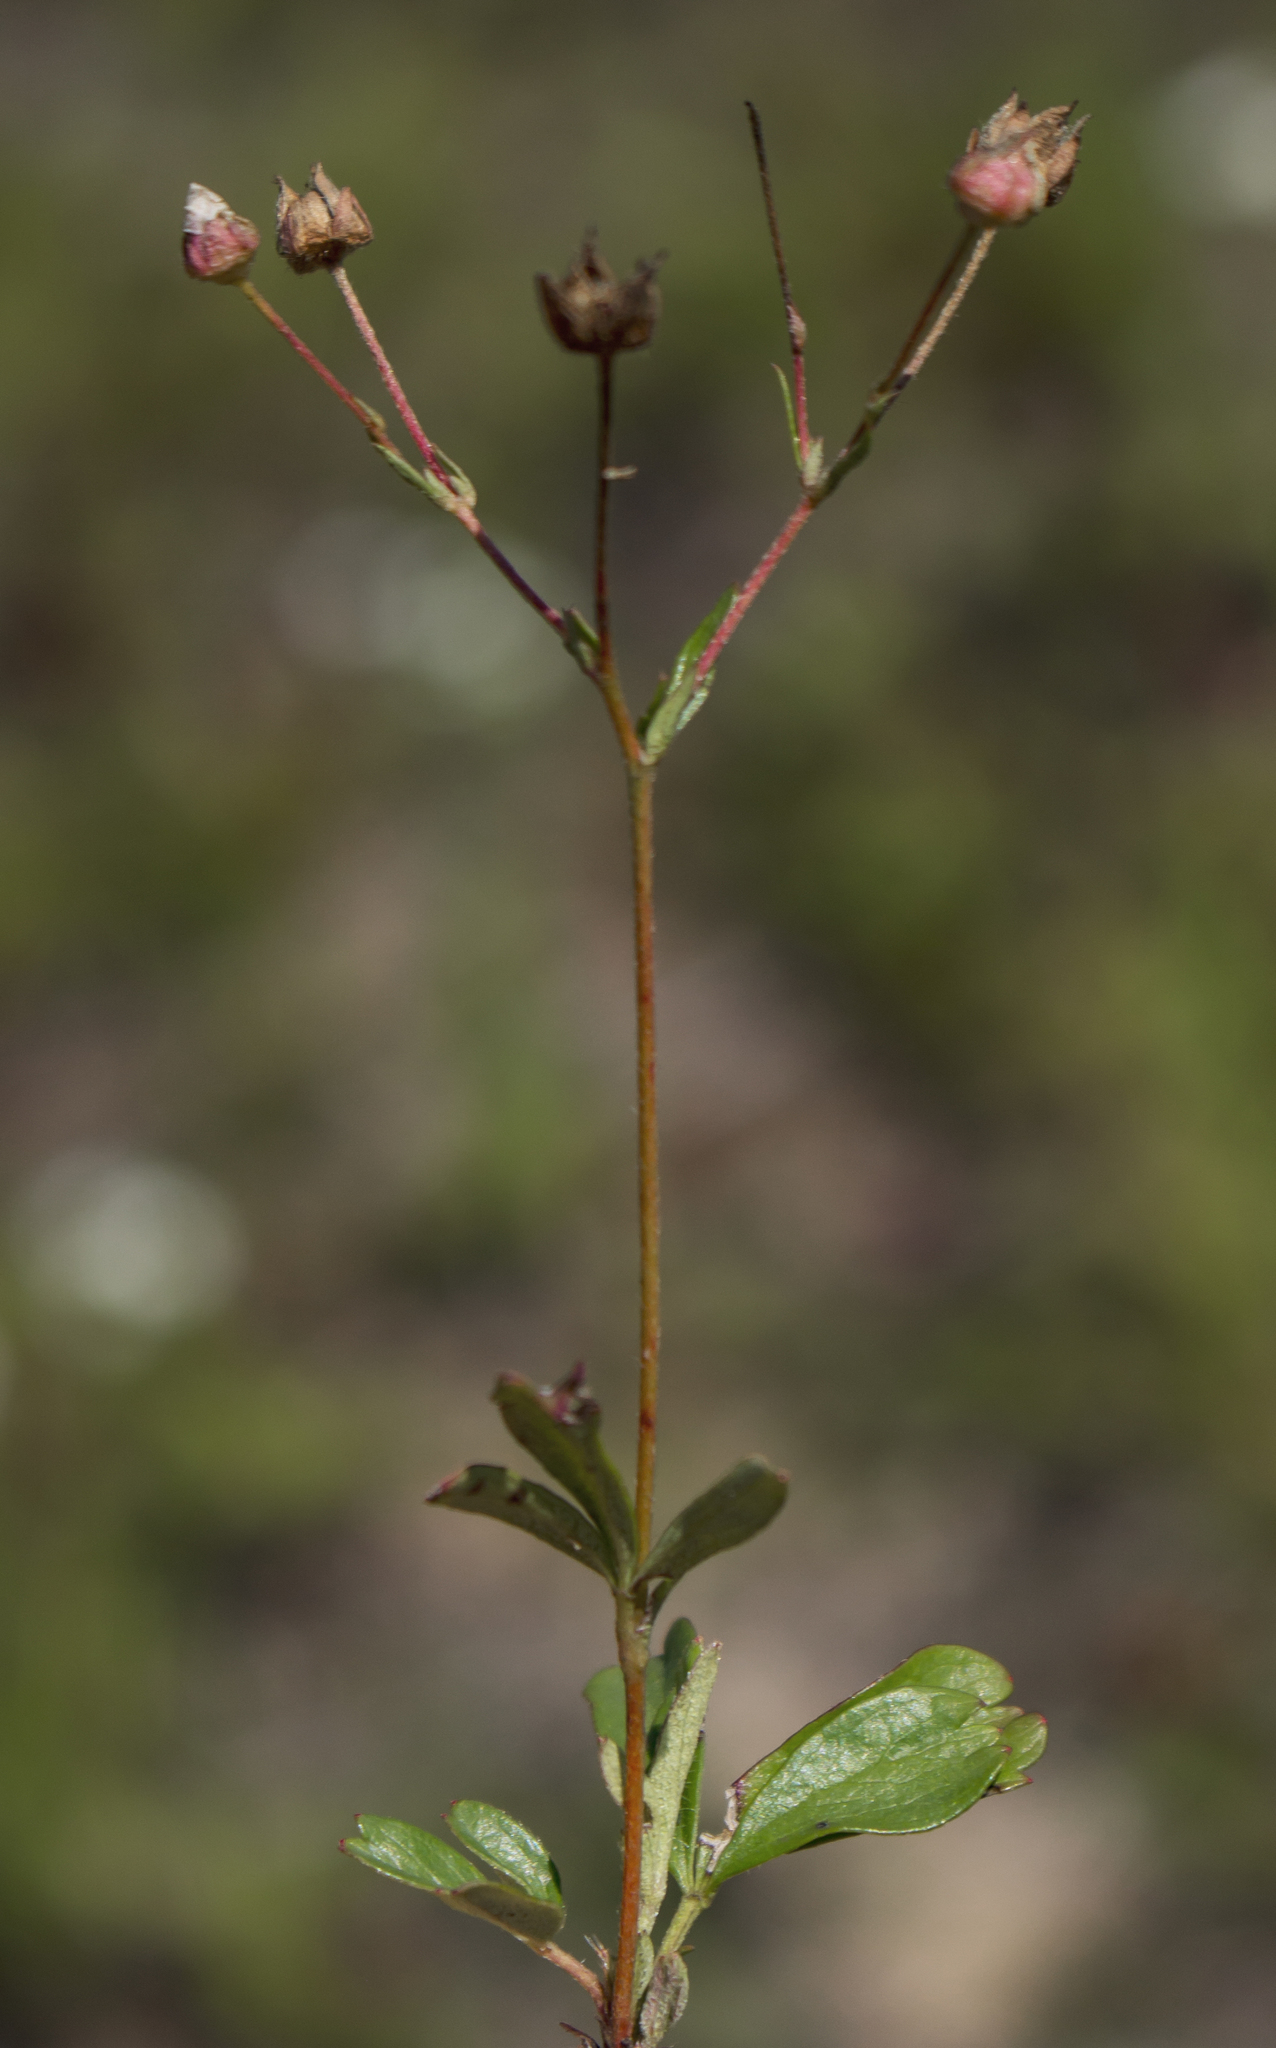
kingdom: Plantae
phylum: Tracheophyta
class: Magnoliopsida
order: Rosales
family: Rosaceae
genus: Sibbaldia
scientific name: Sibbaldia tridentata
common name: Three-toothed cinquefoil
